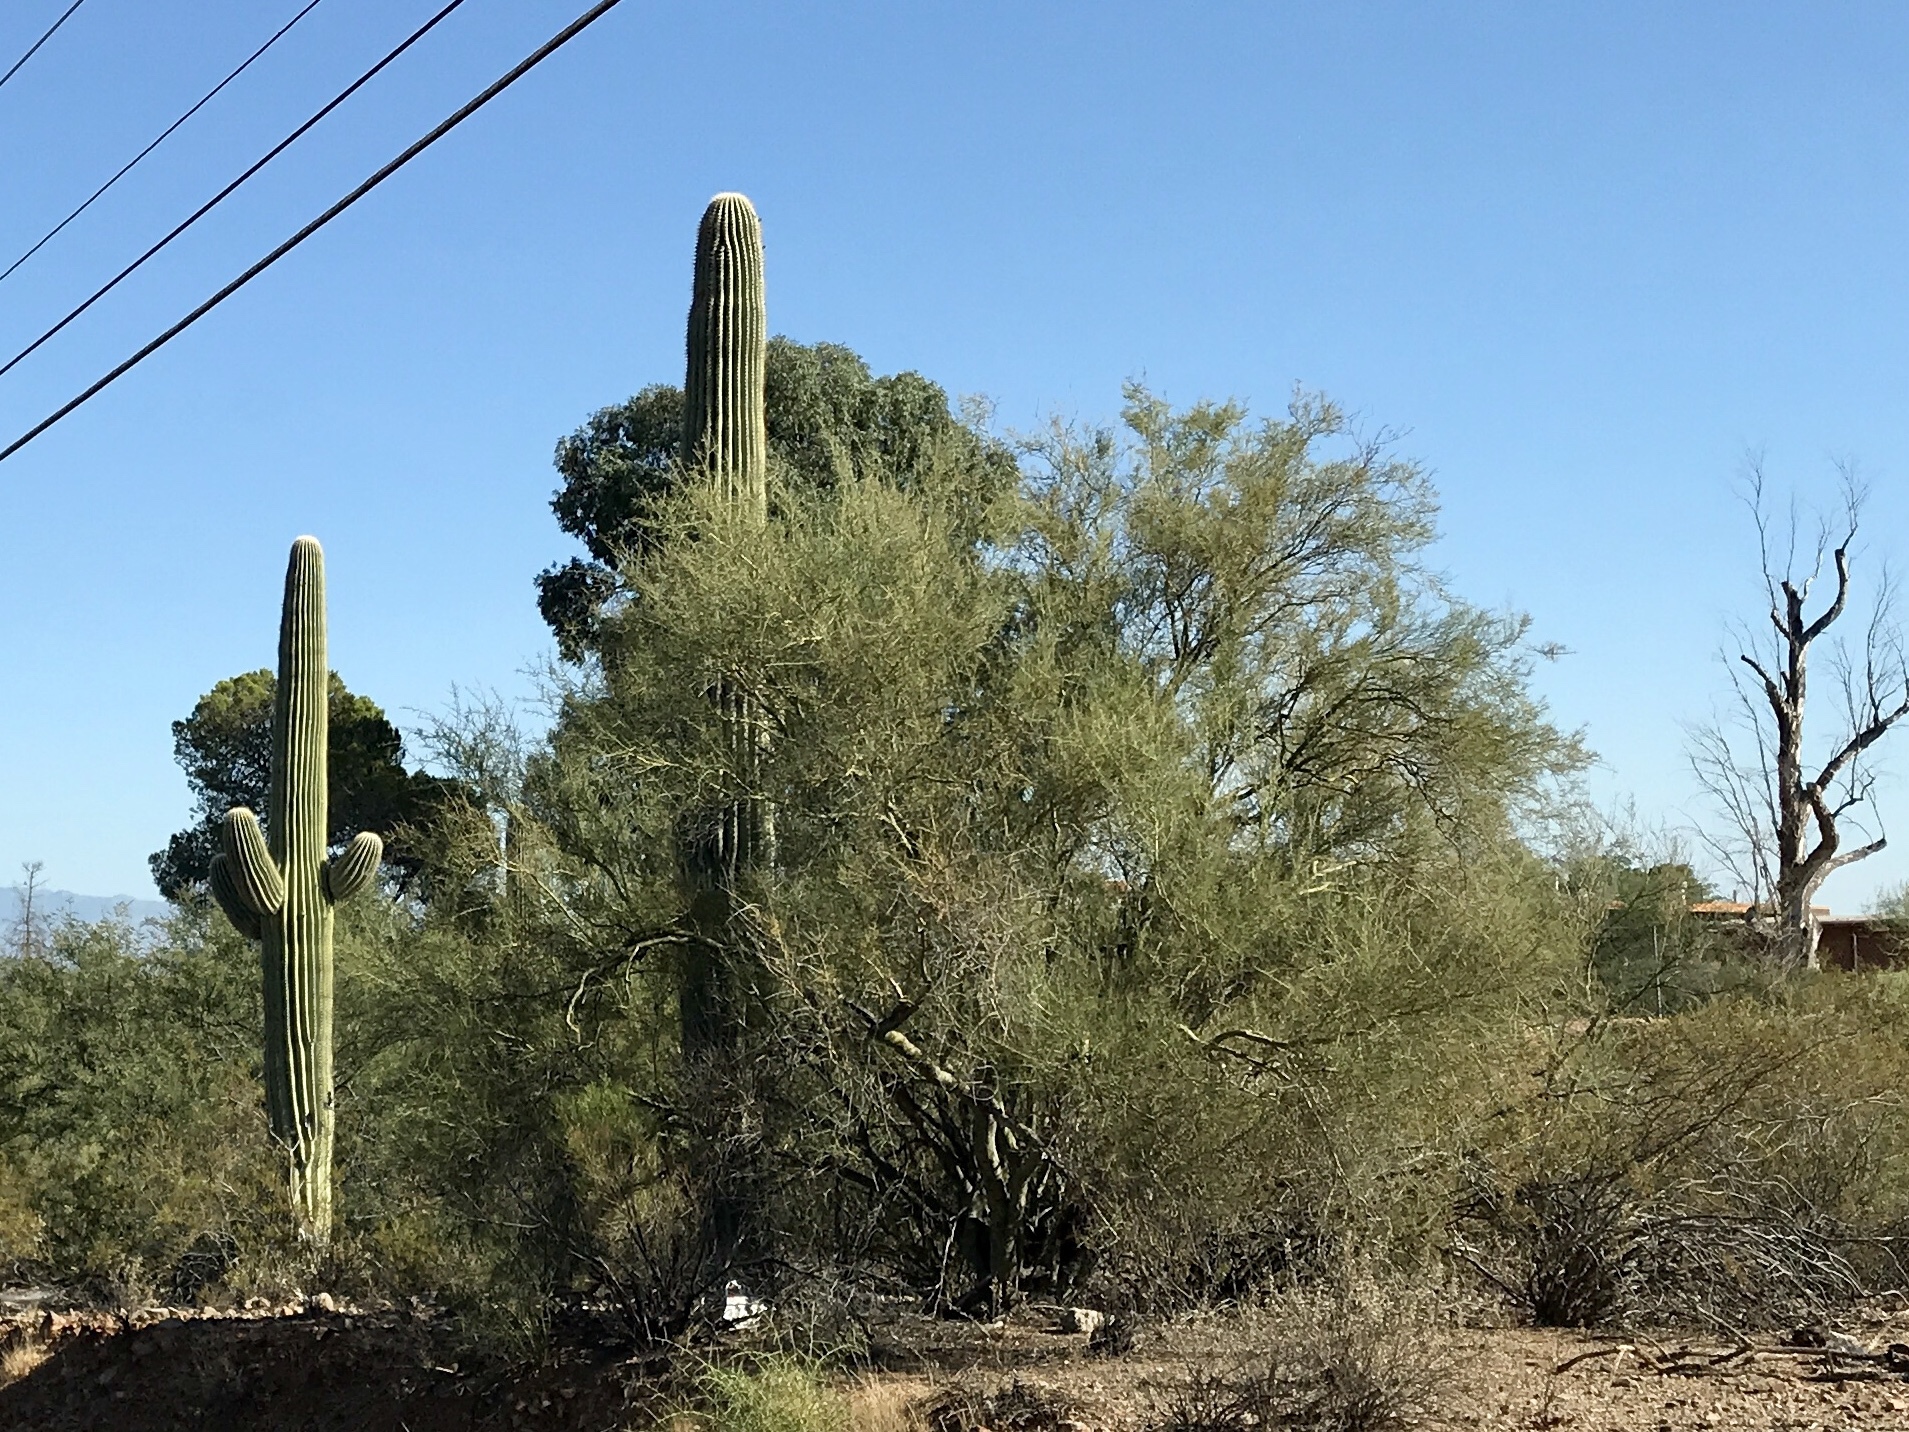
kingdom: Plantae
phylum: Tracheophyta
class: Magnoliopsida
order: Fabales
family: Fabaceae
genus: Parkinsonia
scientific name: Parkinsonia microphylla
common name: Yellow paloverde
